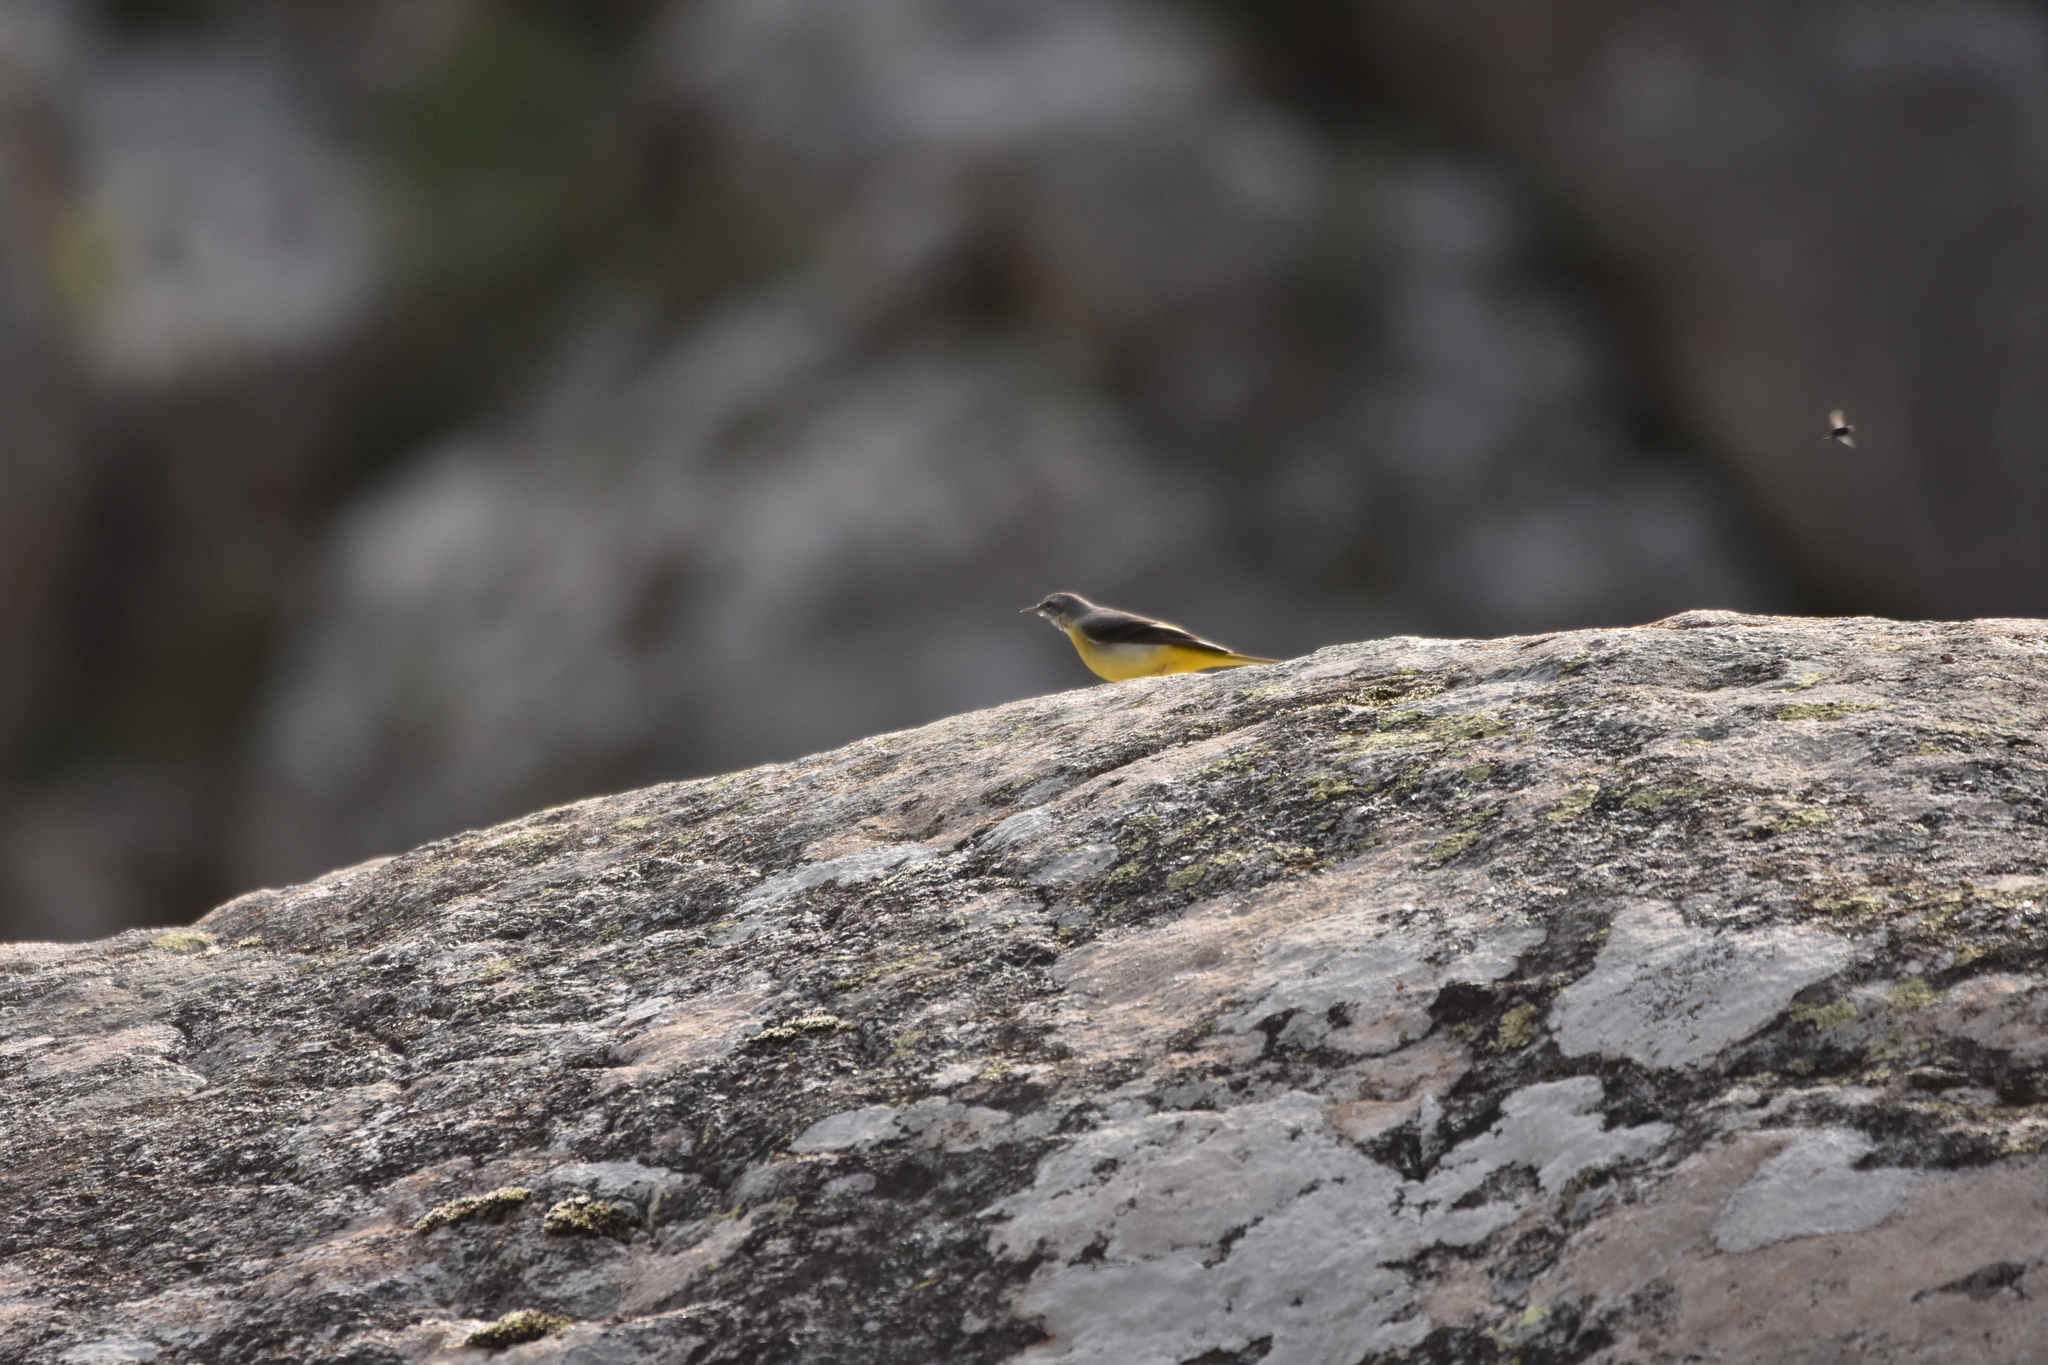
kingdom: Animalia
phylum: Chordata
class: Aves
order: Passeriformes
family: Motacillidae
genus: Motacilla
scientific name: Motacilla cinerea
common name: Grey wagtail
